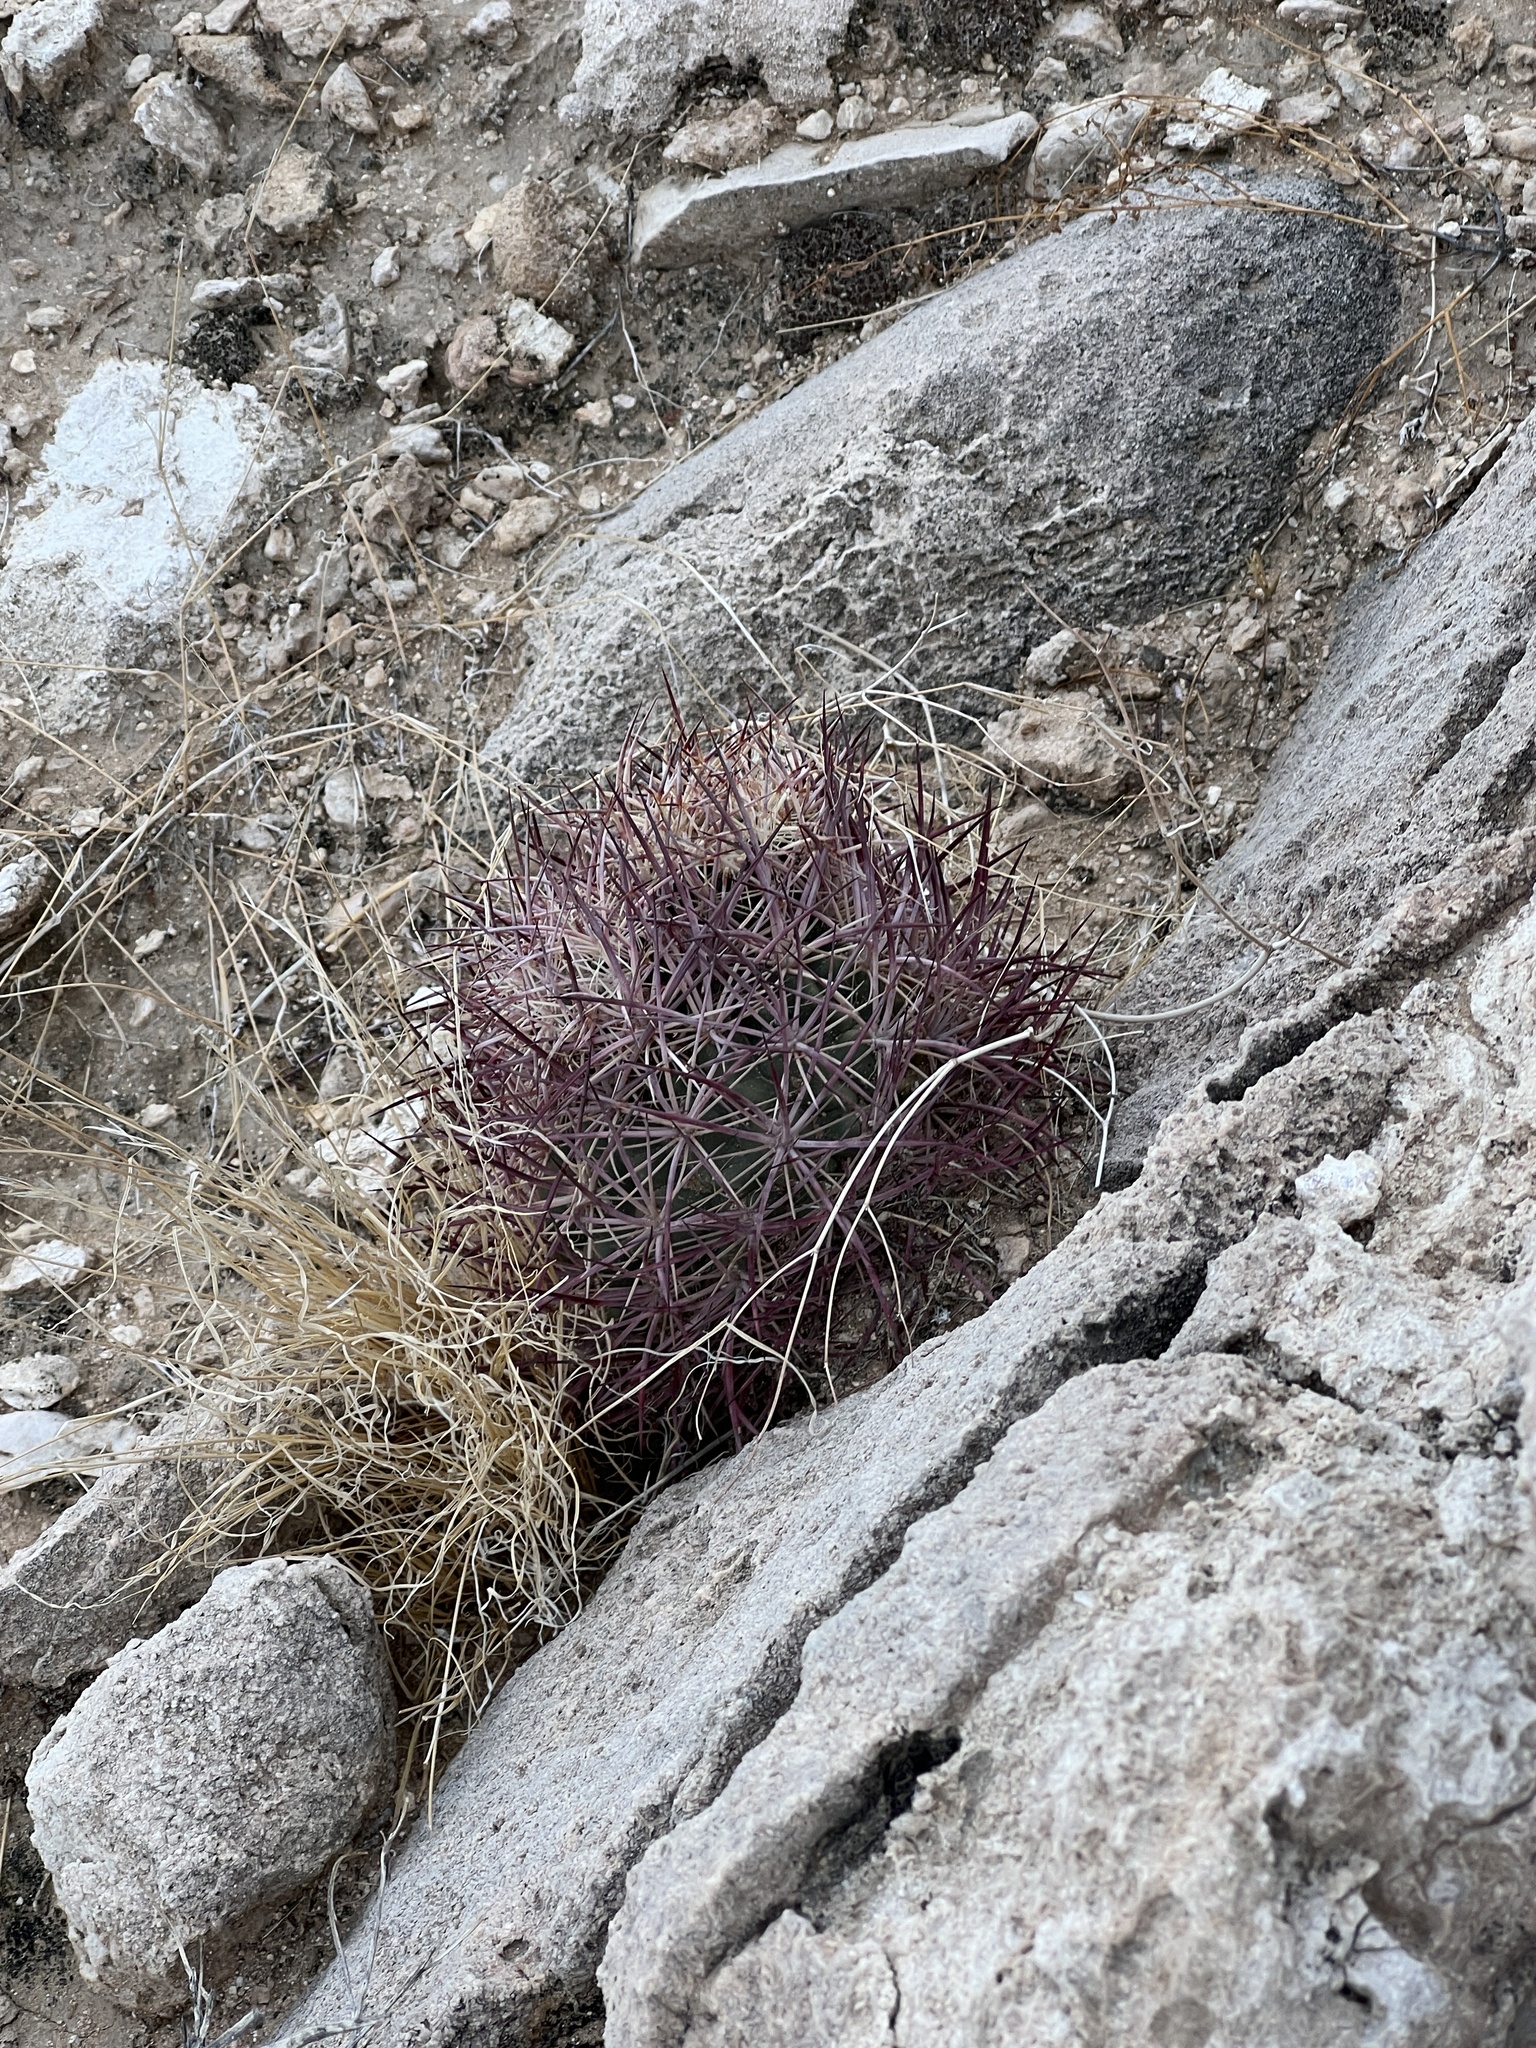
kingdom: Plantae
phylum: Tracheophyta
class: Magnoliopsida
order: Caryophyllales
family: Cactaceae
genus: Sclerocactus
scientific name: Sclerocactus johnsonii
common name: Eight-spine fishhook cactus
